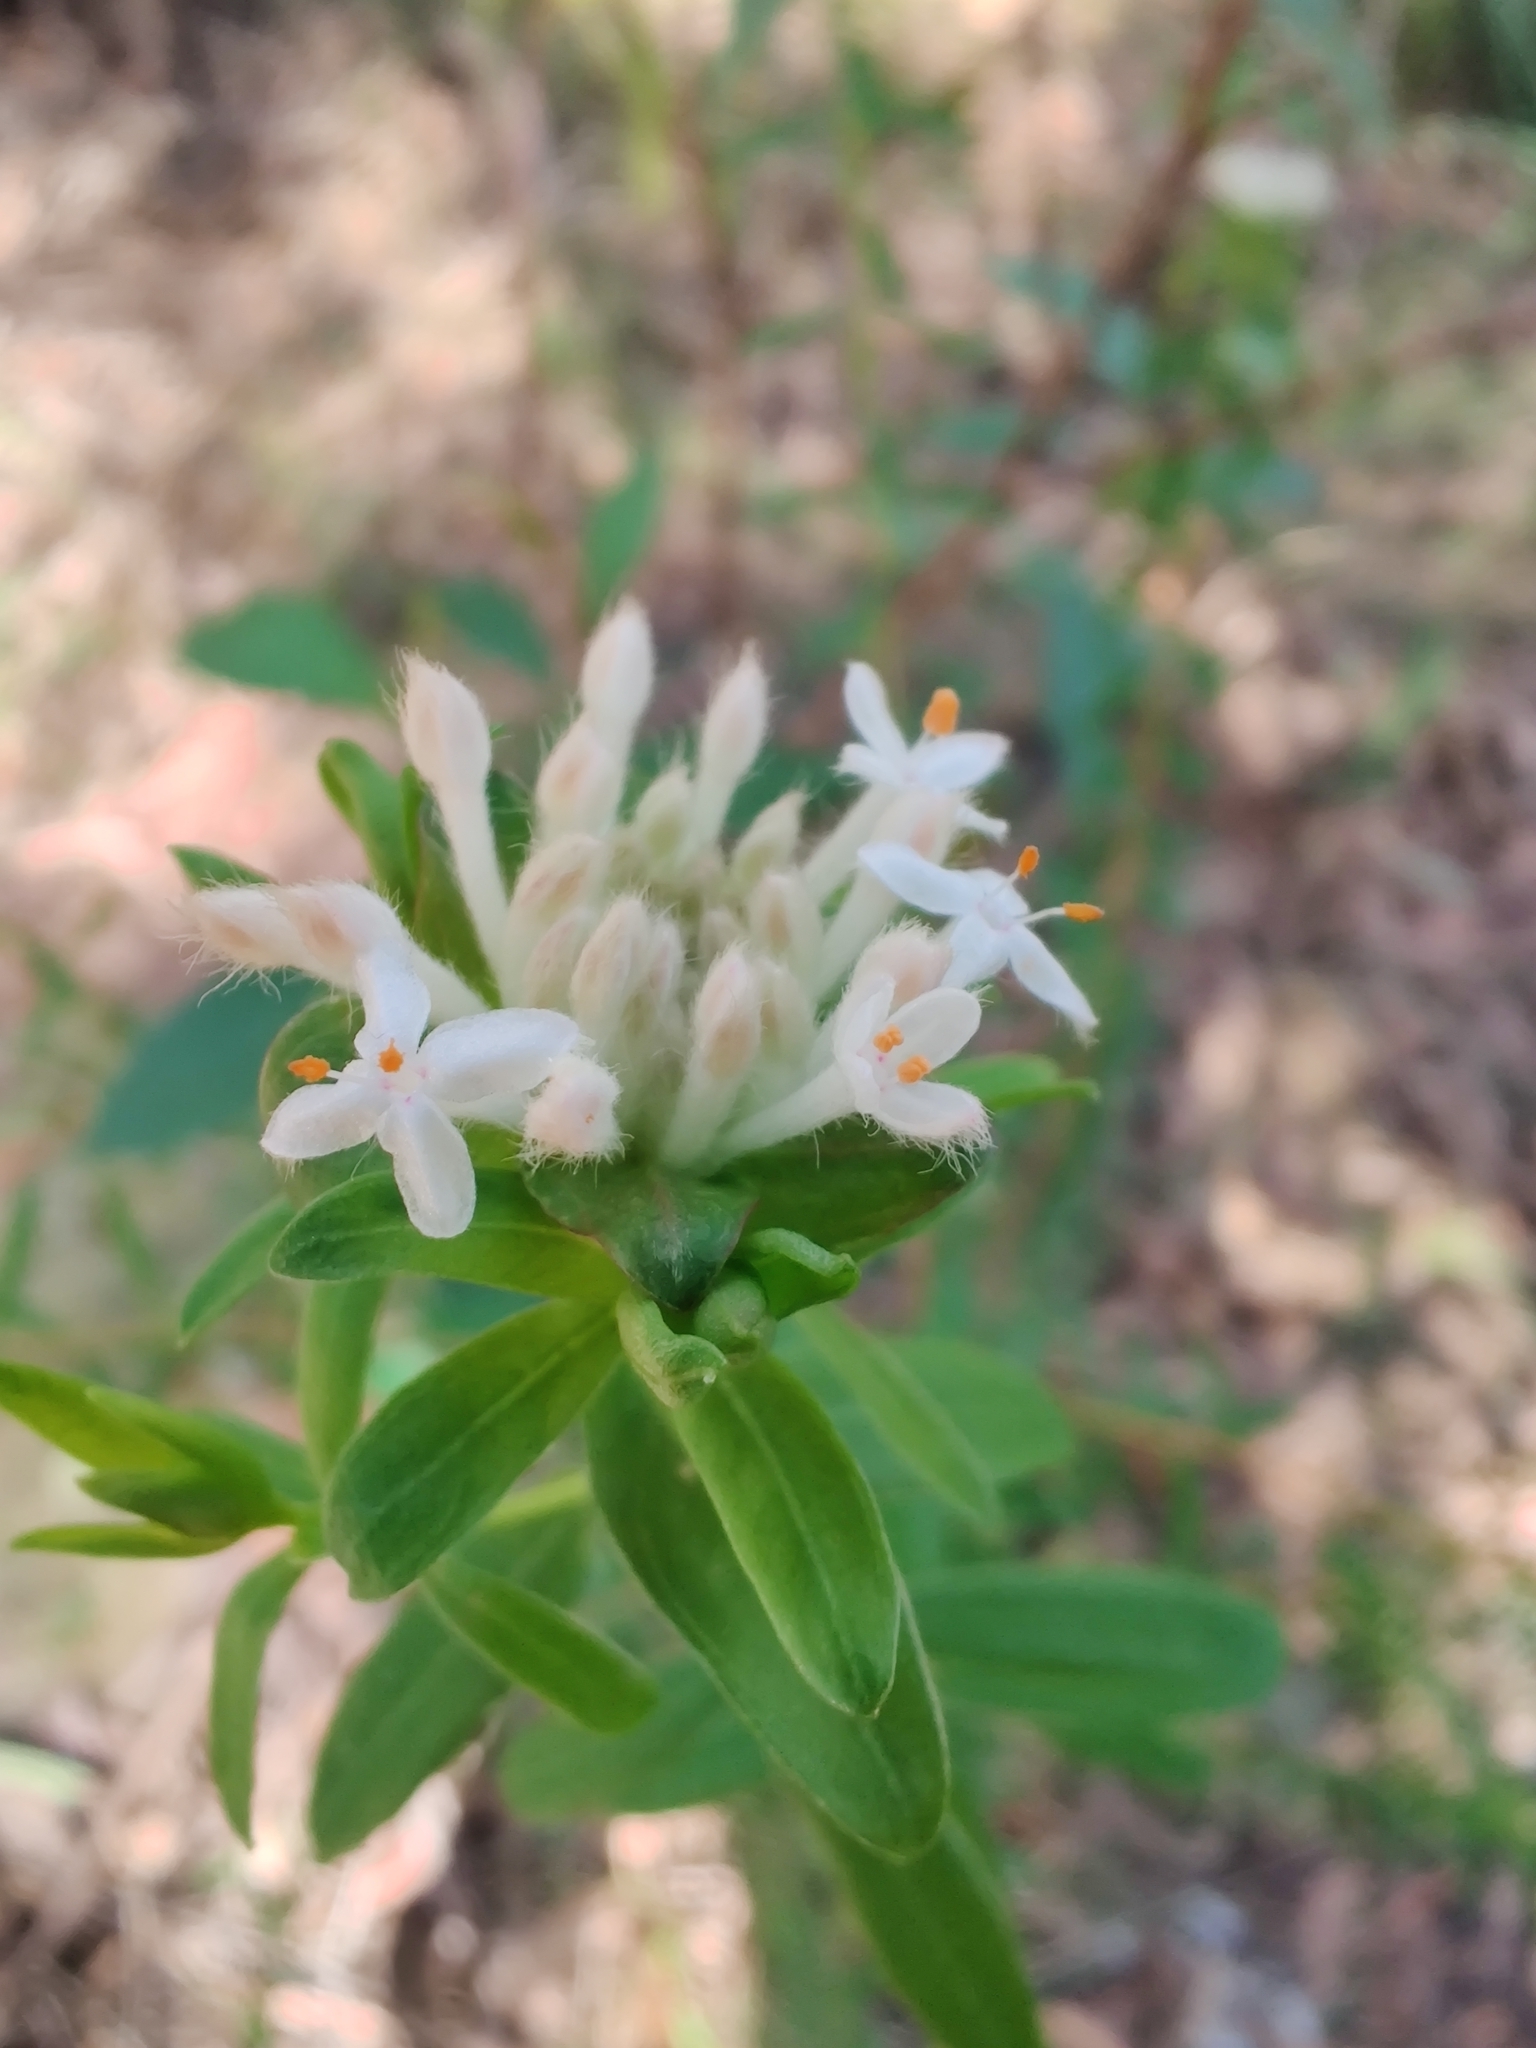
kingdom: Plantae
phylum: Tracheophyta
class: Magnoliopsida
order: Malvales
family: Thymelaeaceae
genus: Pimelea
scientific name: Pimelea linifolia
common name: Queen-of-the-bush
